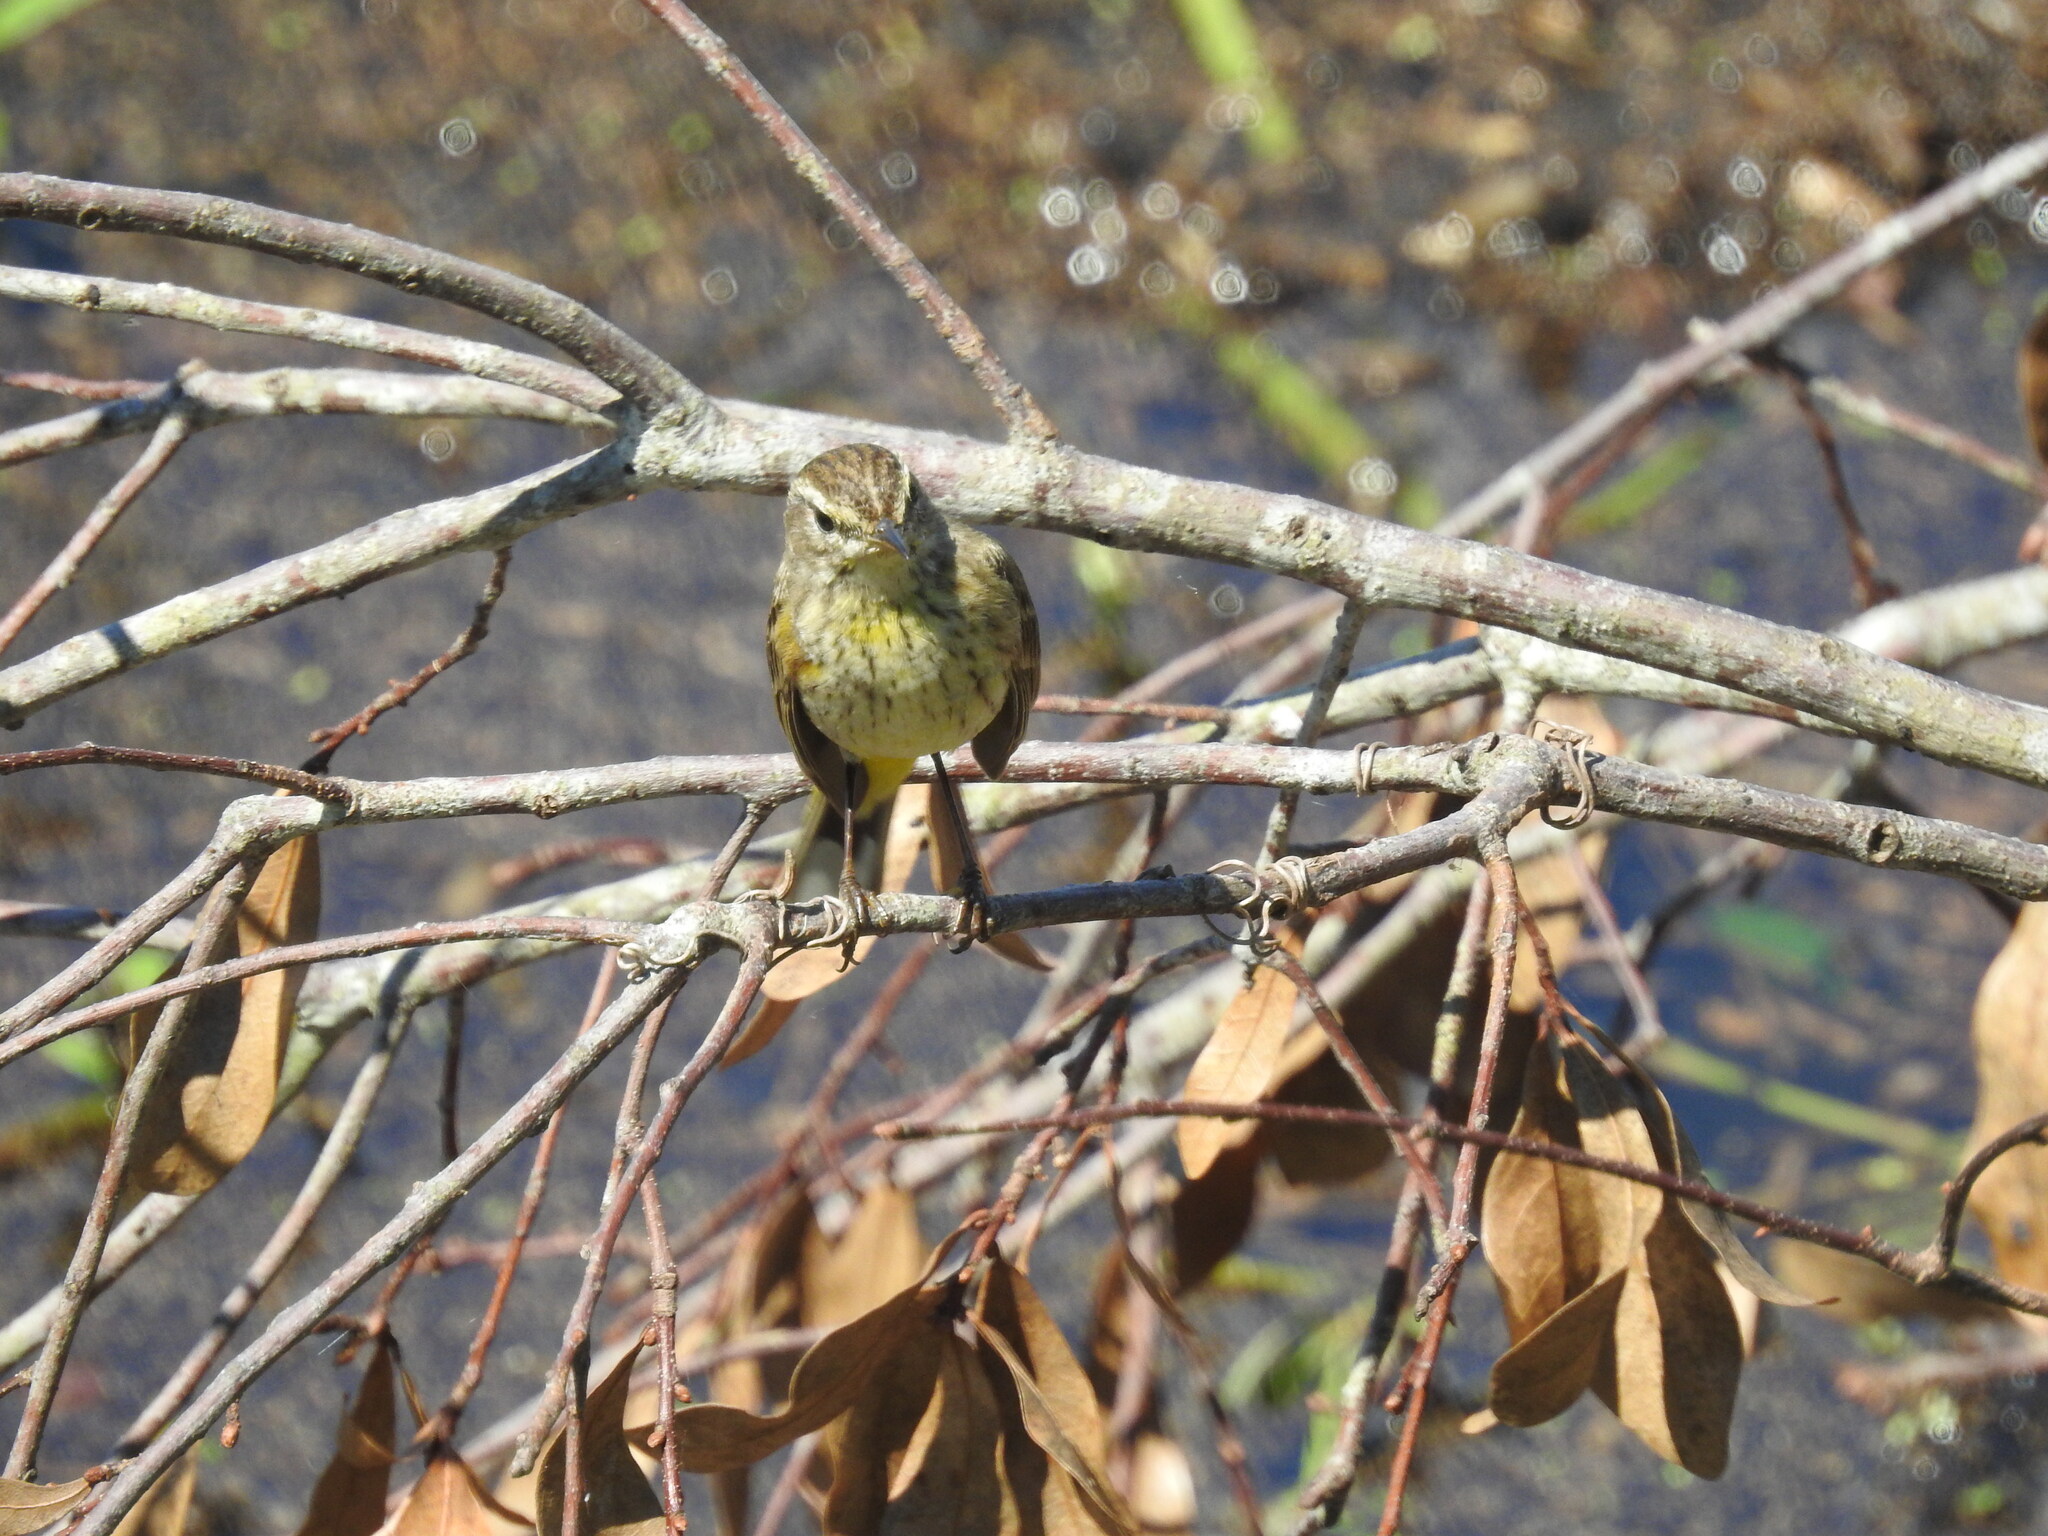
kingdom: Animalia
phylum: Chordata
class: Aves
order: Passeriformes
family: Parulidae
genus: Setophaga
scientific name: Setophaga palmarum
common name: Palm warbler
